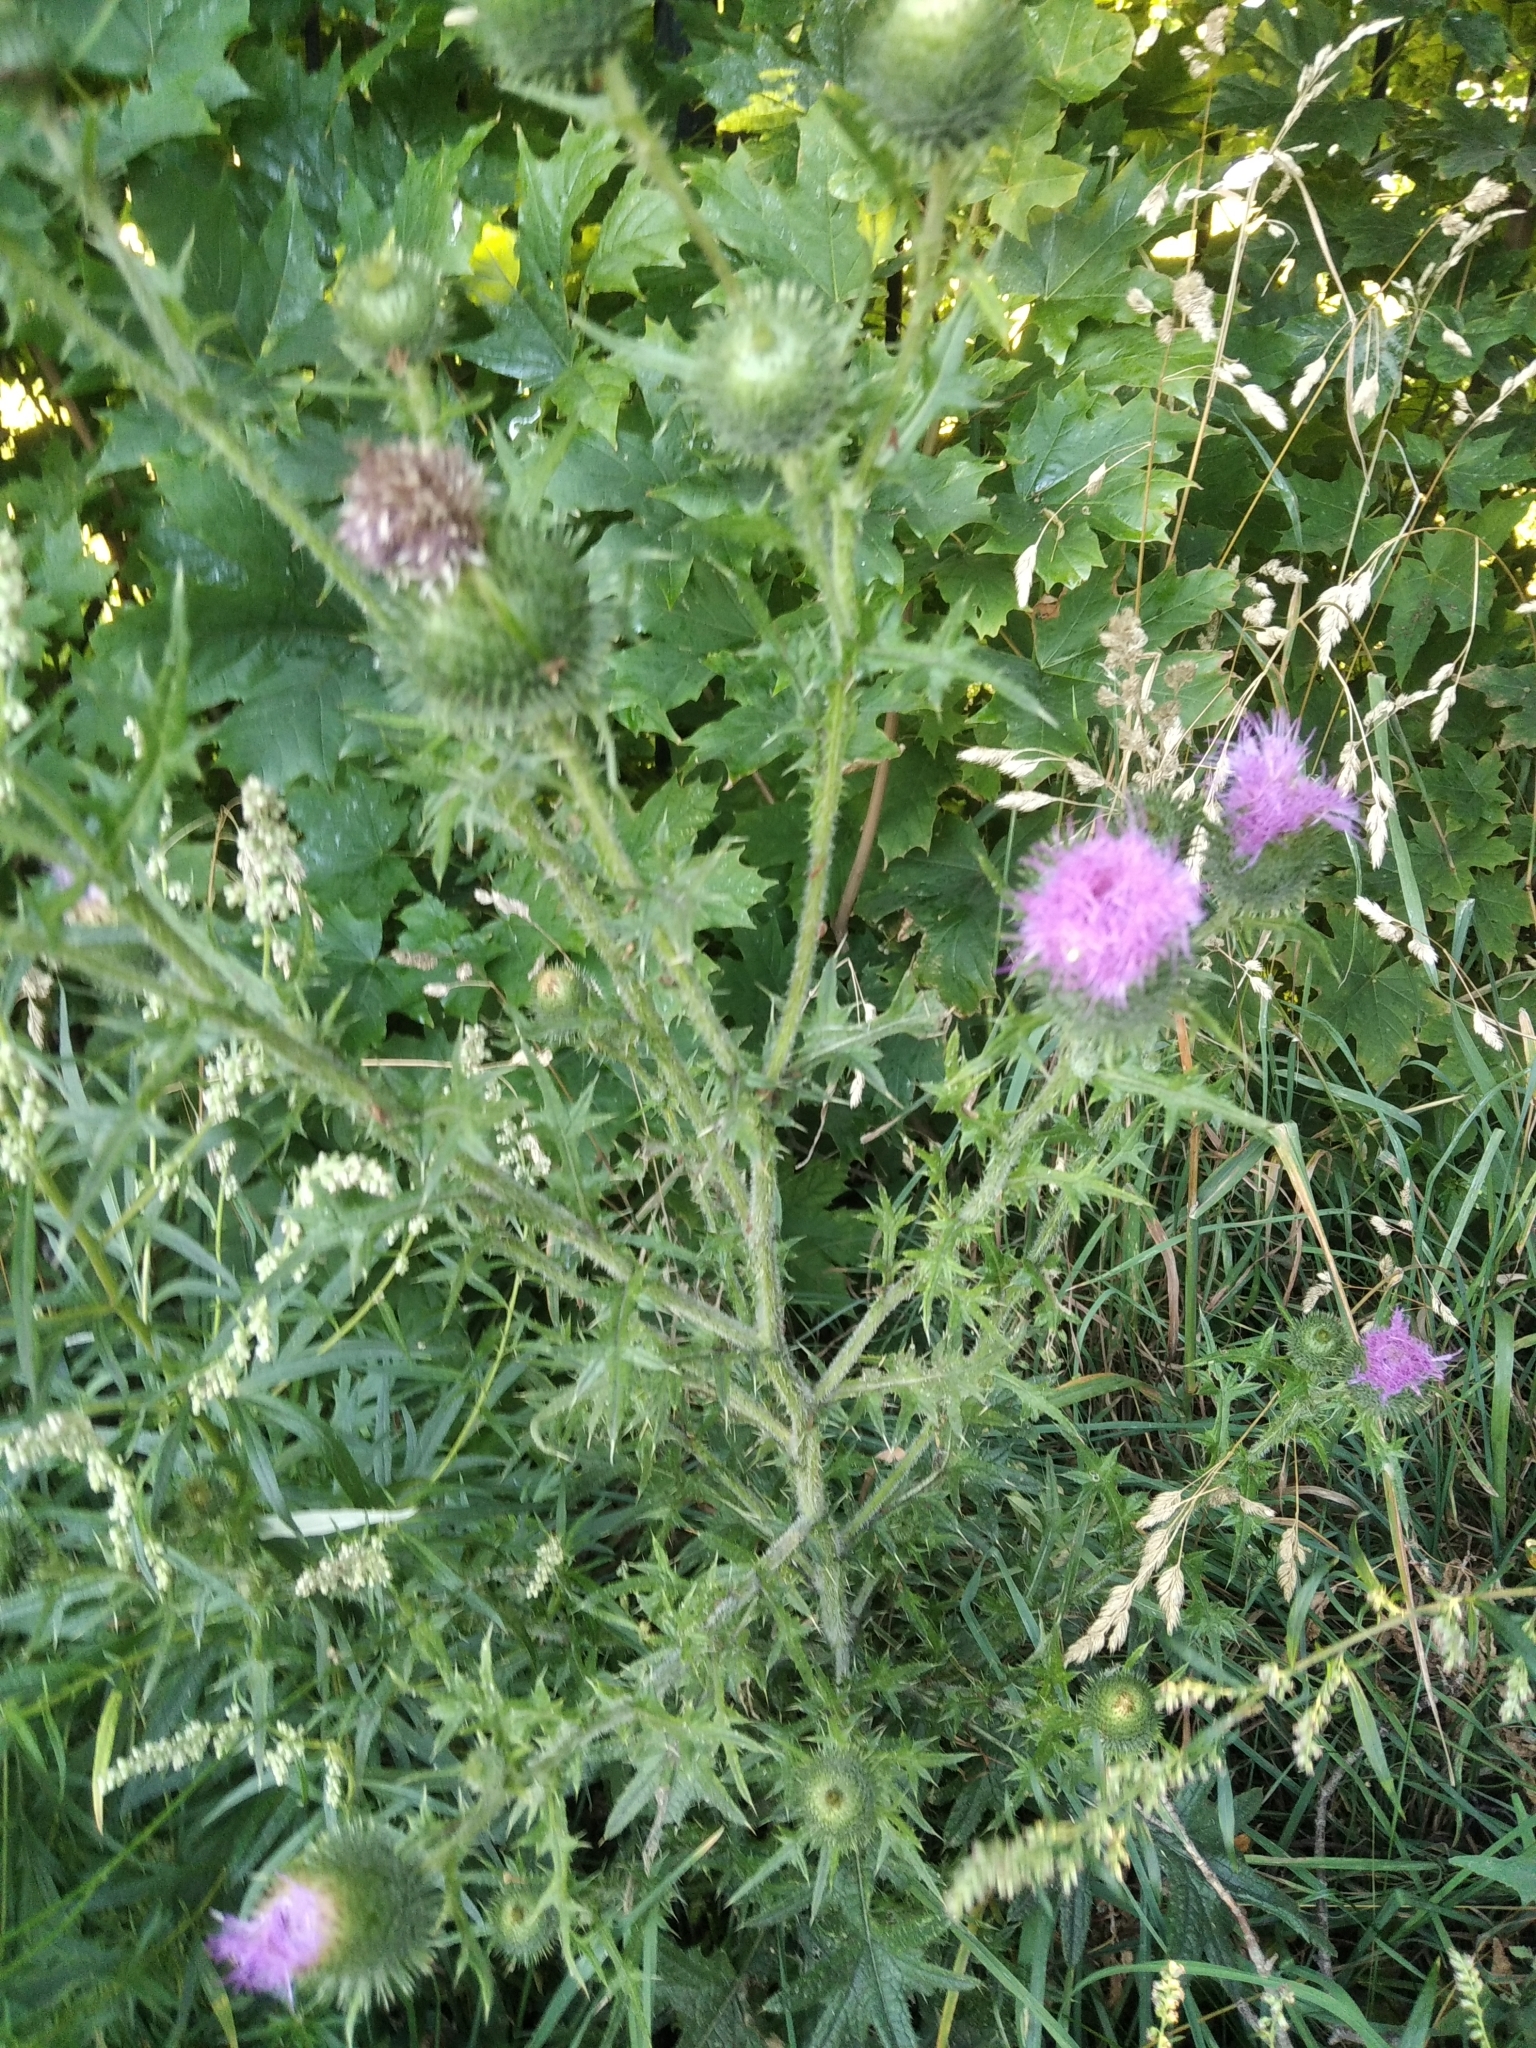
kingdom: Plantae
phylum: Tracheophyta
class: Magnoliopsida
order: Asterales
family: Asteraceae
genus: Cirsium
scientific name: Cirsium vulgare
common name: Bull thistle
